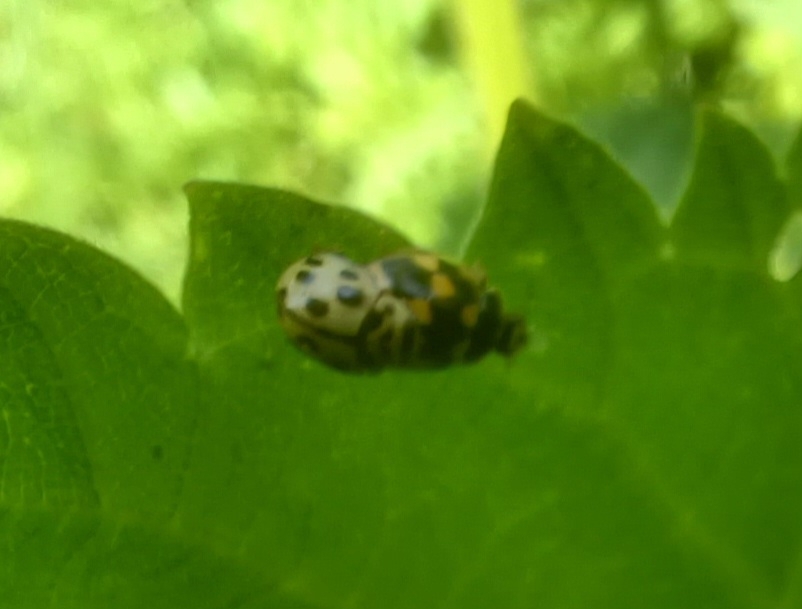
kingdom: Animalia
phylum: Arthropoda
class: Insecta
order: Coleoptera
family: Coccinellidae
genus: Propylaea
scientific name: Propylaea quatuordecimpunctata
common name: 14-spotted ladybird beetle
